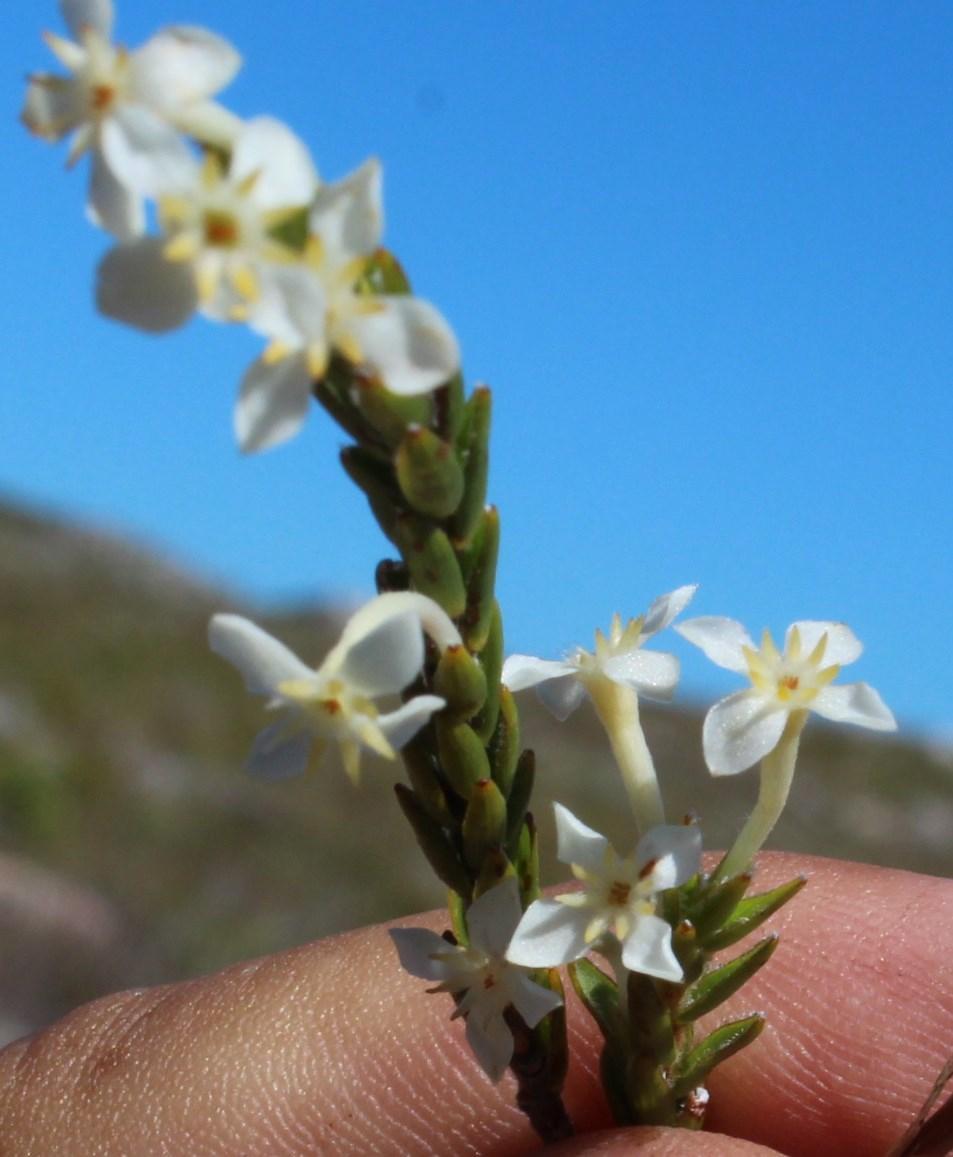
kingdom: Plantae
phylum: Tracheophyta
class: Magnoliopsida
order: Malvales
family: Thymelaeaceae
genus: Struthiola
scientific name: Struthiola ciliata
